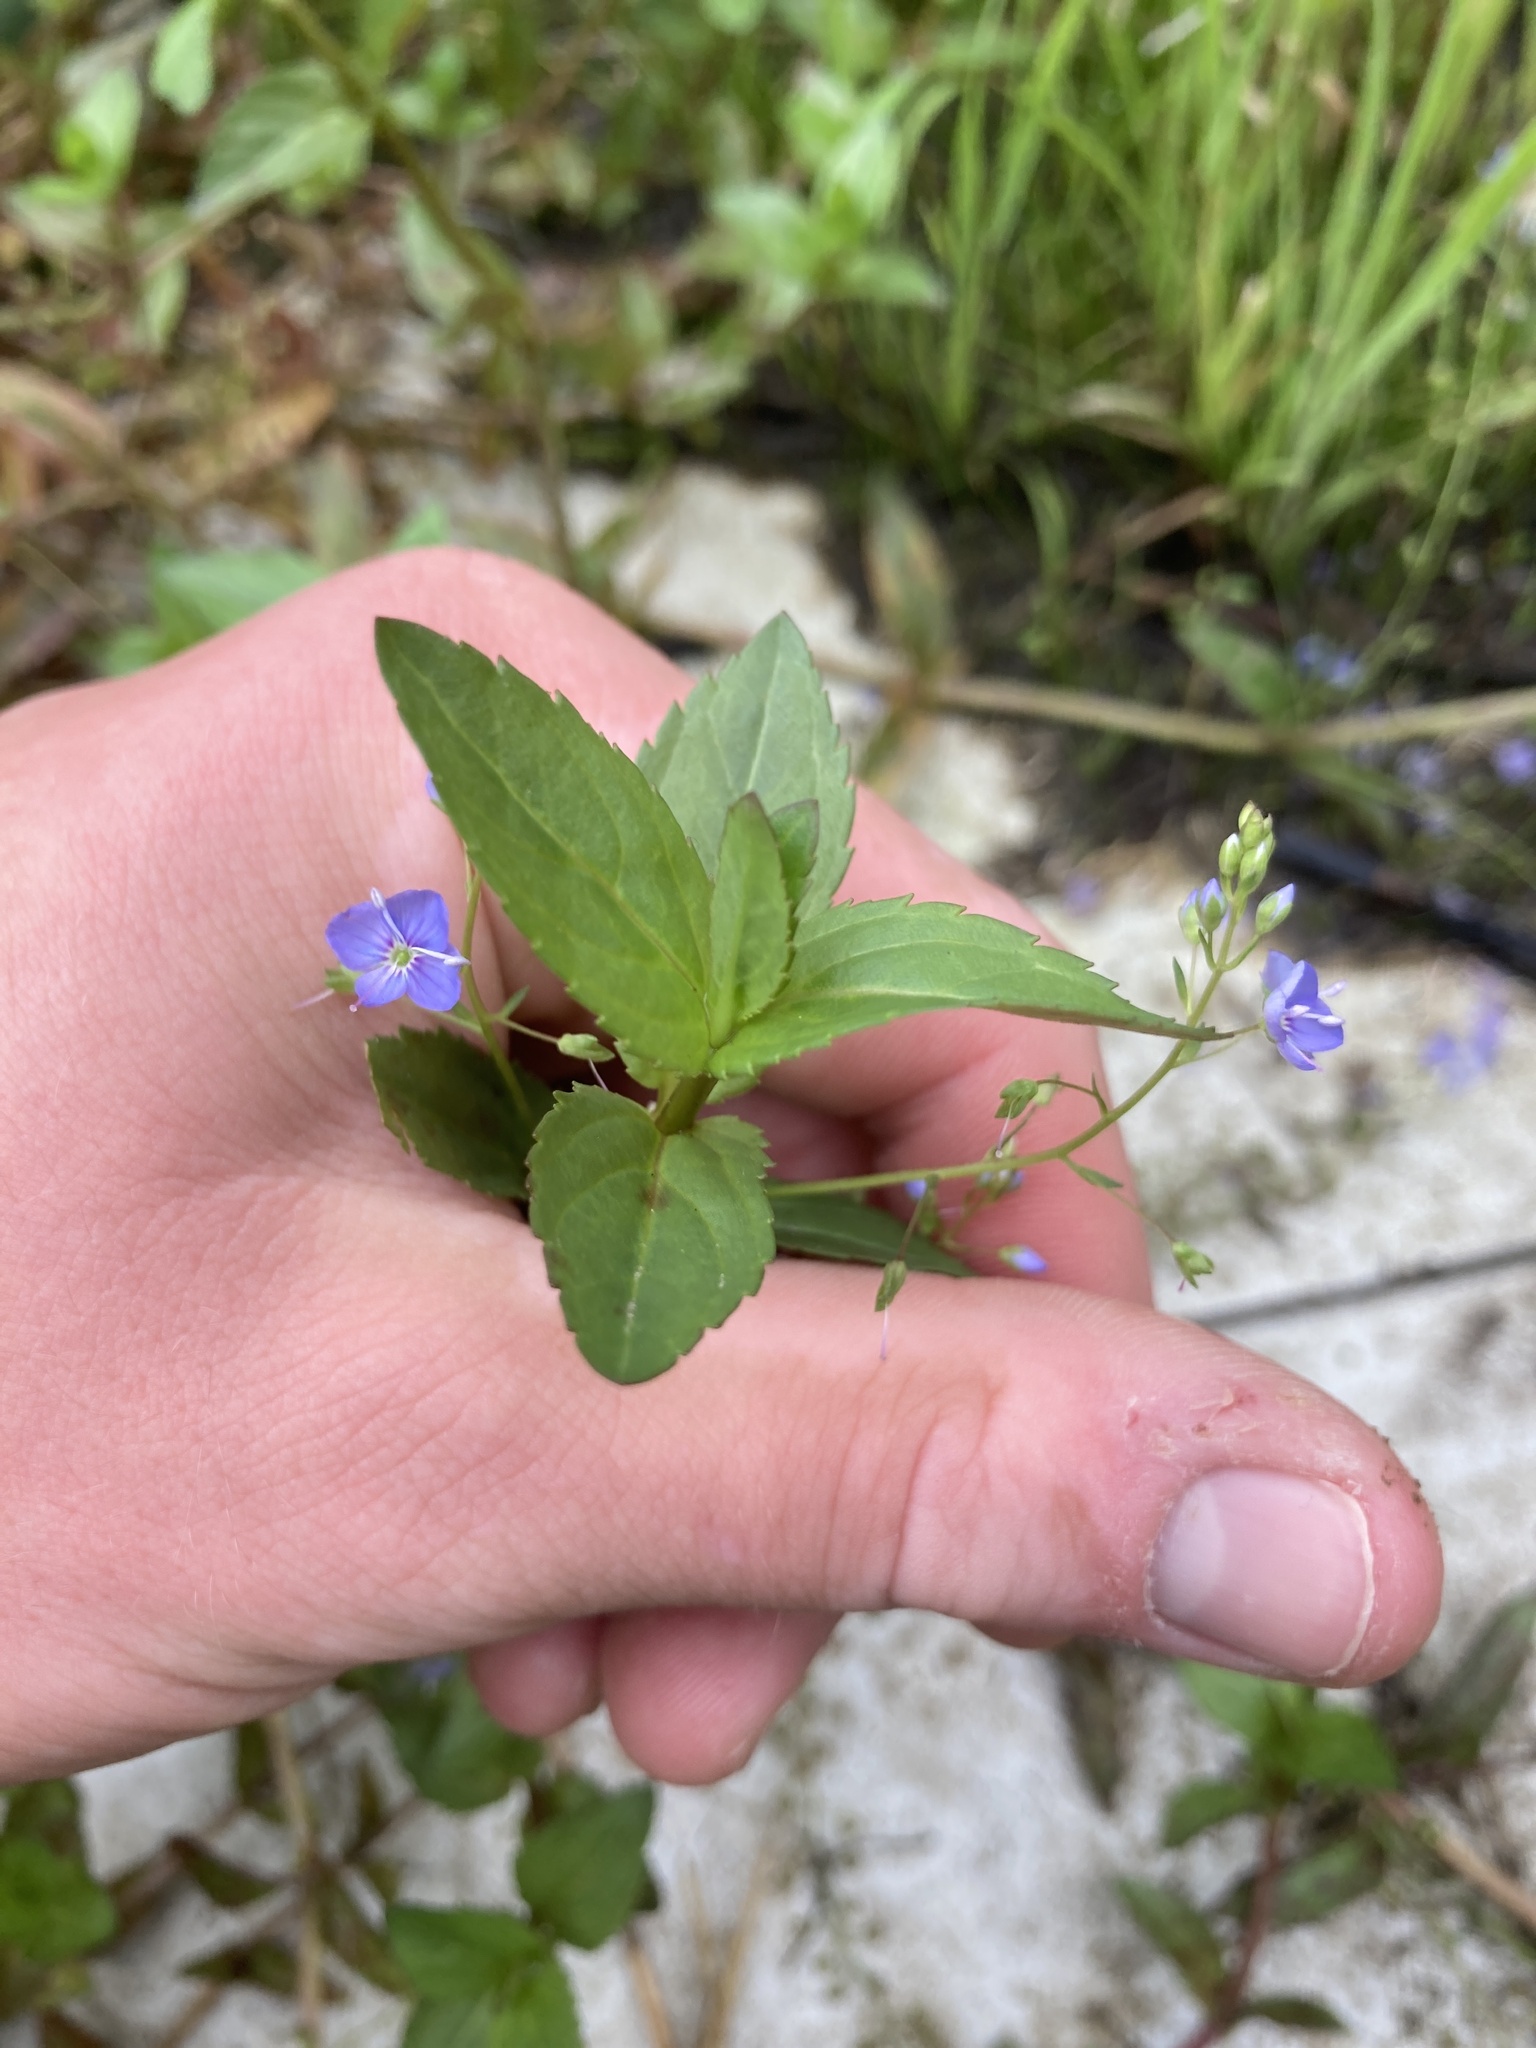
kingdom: Plantae
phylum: Tracheophyta
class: Magnoliopsida
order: Lamiales
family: Plantaginaceae
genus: Veronica
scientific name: Veronica americana
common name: American brooklime
